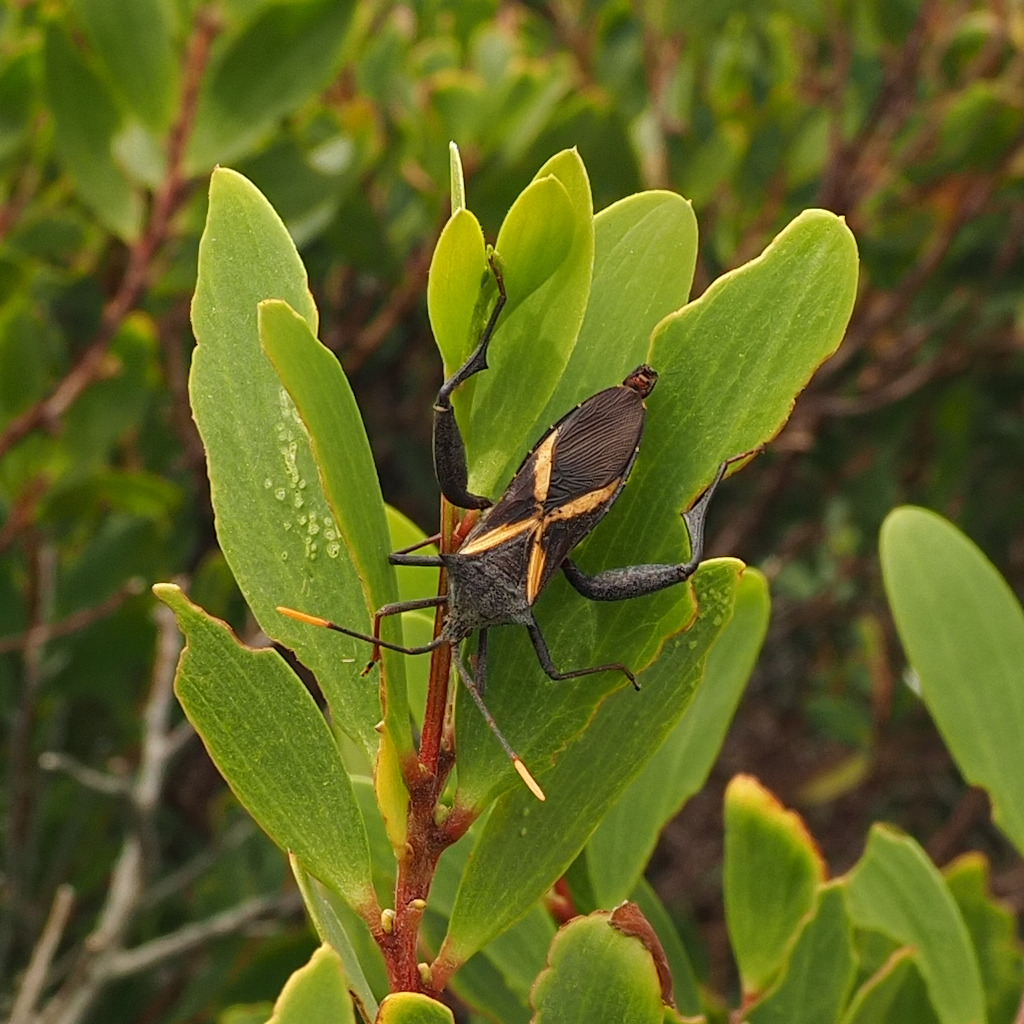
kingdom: Animalia
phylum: Arthropoda
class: Insecta
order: Hemiptera
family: Coreidae
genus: Mictis
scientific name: Mictis profana
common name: Crusader bug
